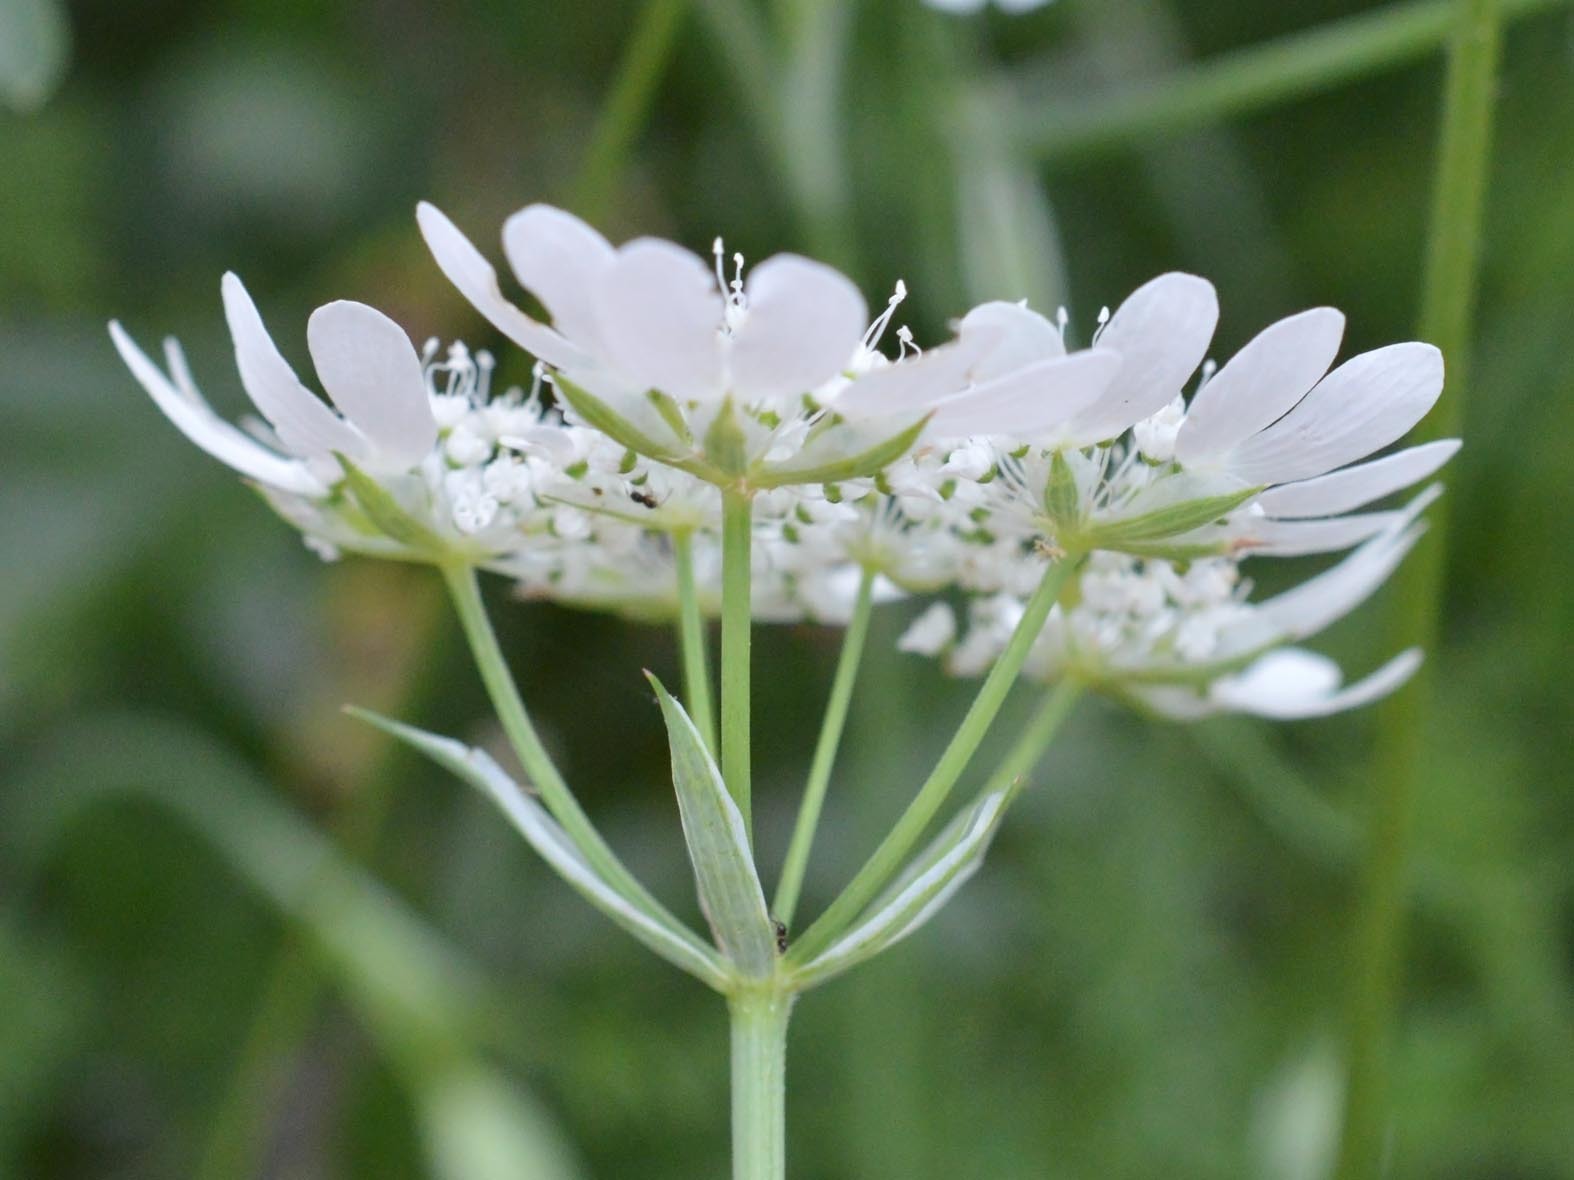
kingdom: Plantae
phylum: Tracheophyta
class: Magnoliopsida
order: Apiales
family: Apiaceae
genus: Orlaya
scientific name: Orlaya grandiflora
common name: White lace flower
